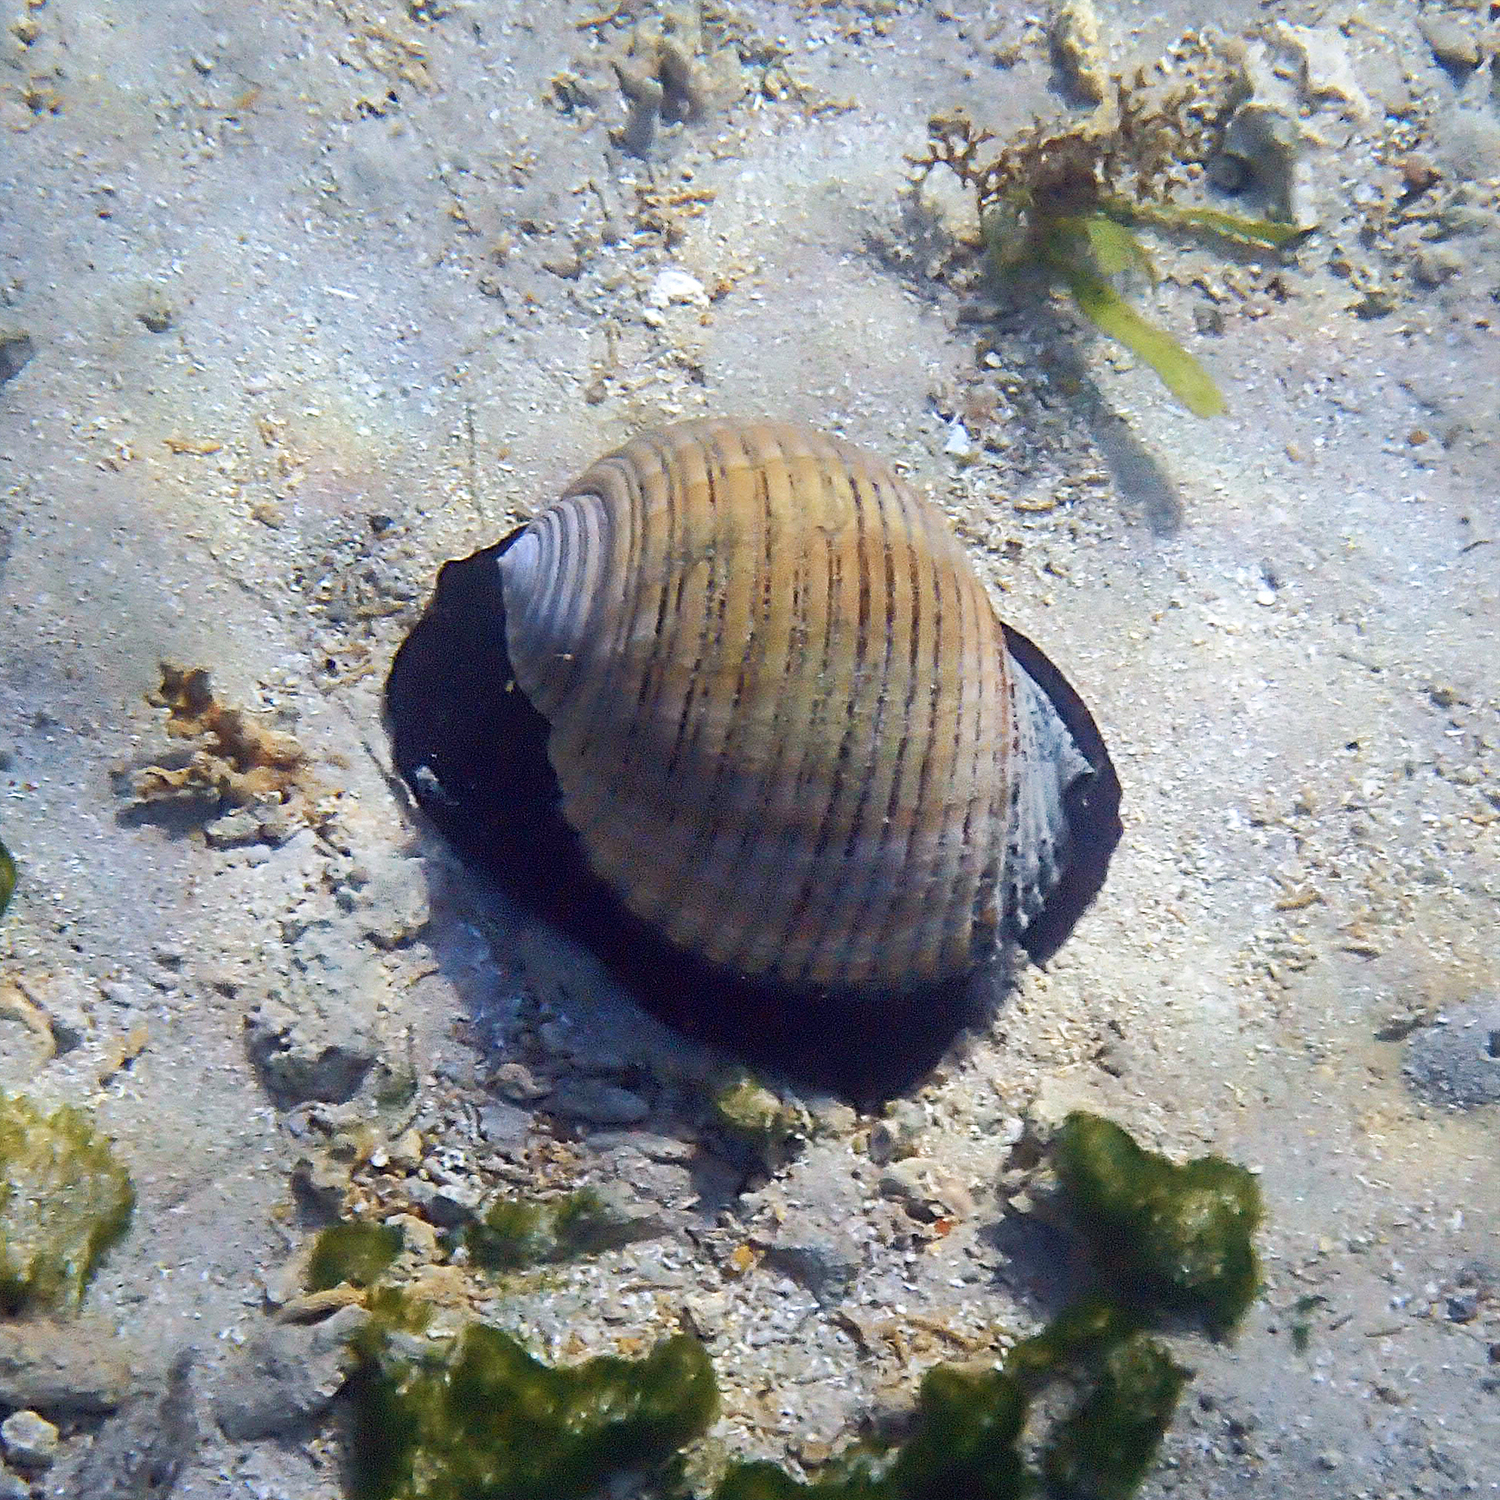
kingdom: Animalia
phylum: Mollusca
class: Gastropoda
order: Littorinimorpha
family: Tonnidae
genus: Tonna
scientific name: Tonna melanostoma
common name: Black mouthed tun
